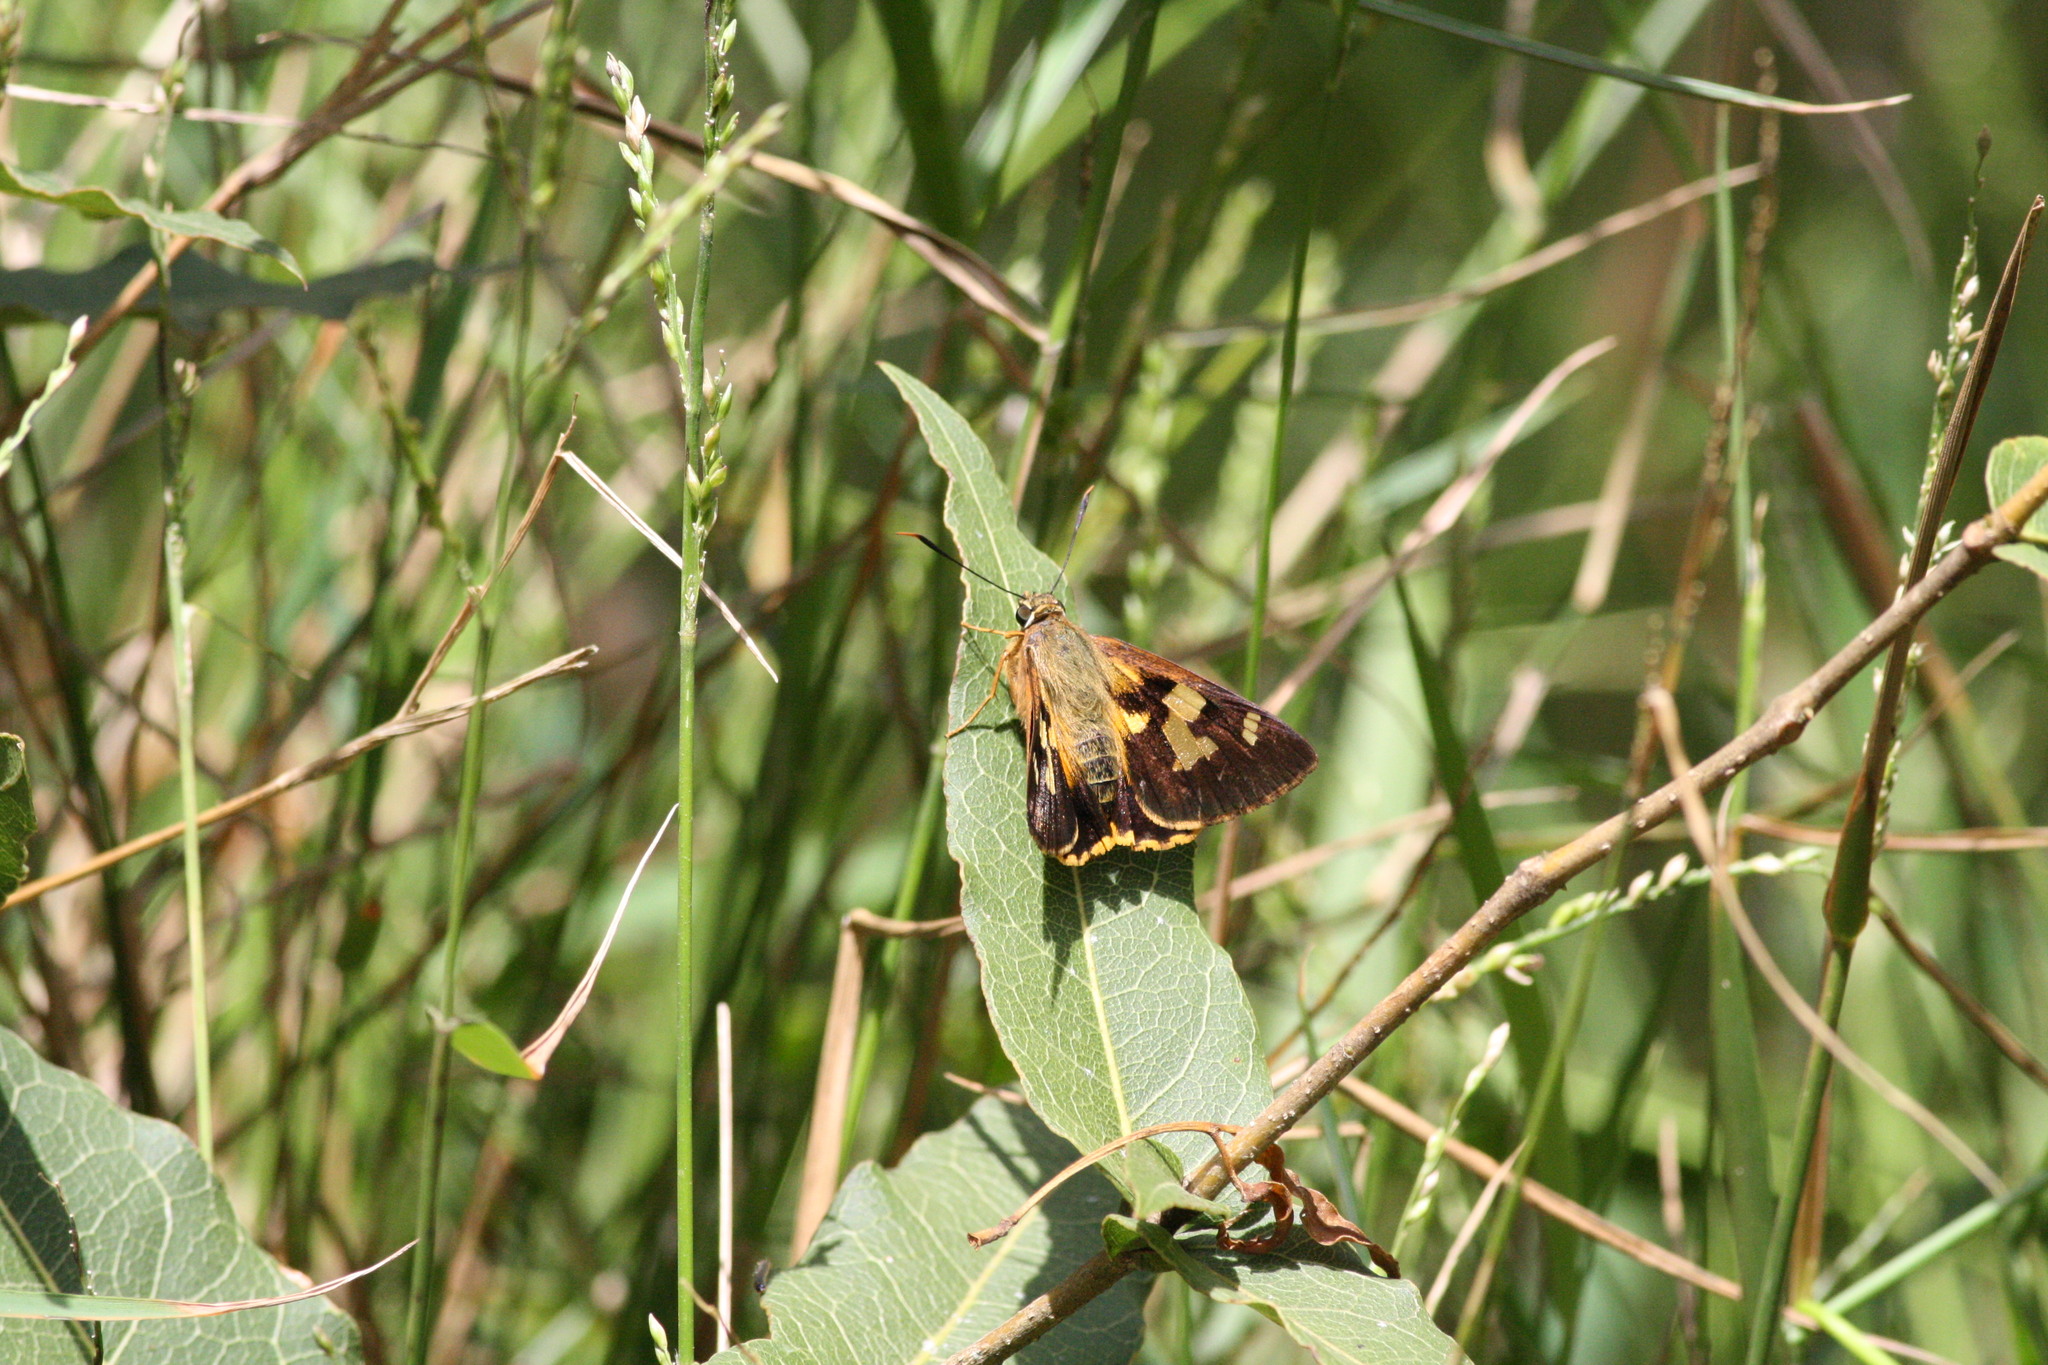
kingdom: Animalia
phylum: Arthropoda
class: Insecta
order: Lepidoptera
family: Hesperiidae
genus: Trapezites
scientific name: Trapezites symmomus
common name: Splendid ochre
